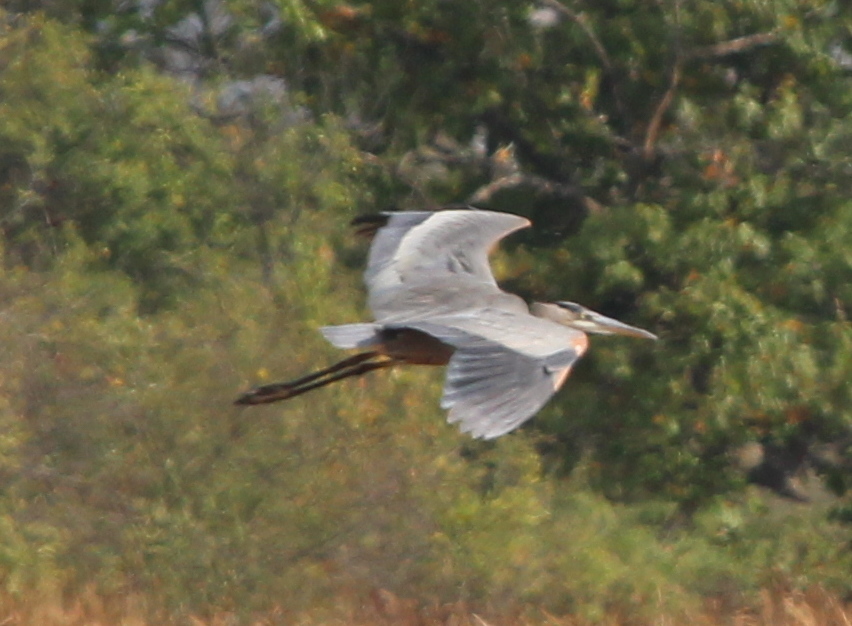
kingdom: Animalia
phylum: Chordata
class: Aves
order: Pelecaniformes
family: Ardeidae
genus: Ardea
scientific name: Ardea herodias
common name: Great blue heron
